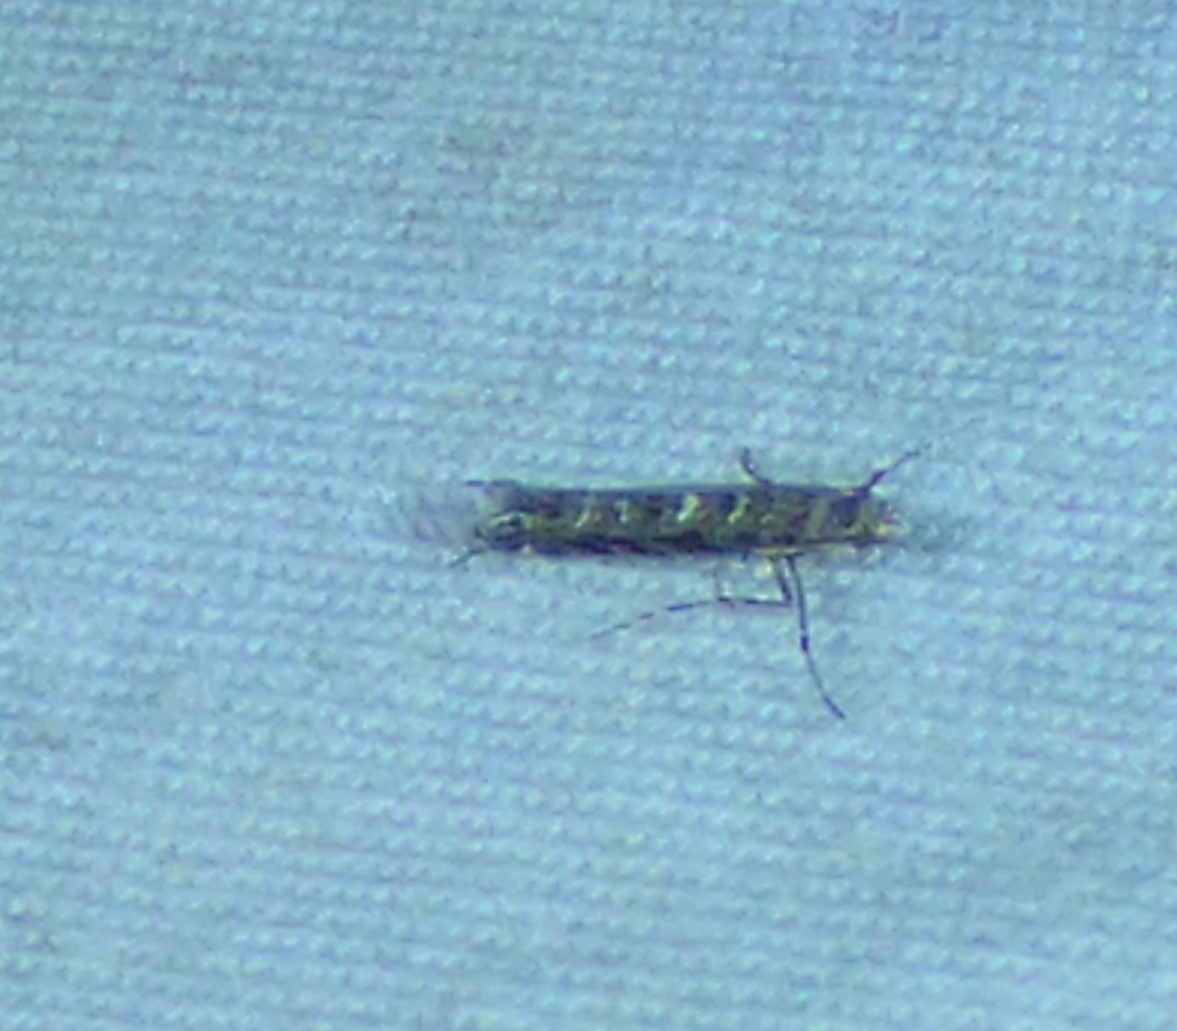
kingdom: Animalia
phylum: Arthropoda
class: Insecta
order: Lepidoptera
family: Gracillariidae
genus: Neurobathra
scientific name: Neurobathra strigifinitella
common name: Finite-channeled leafminer moth
